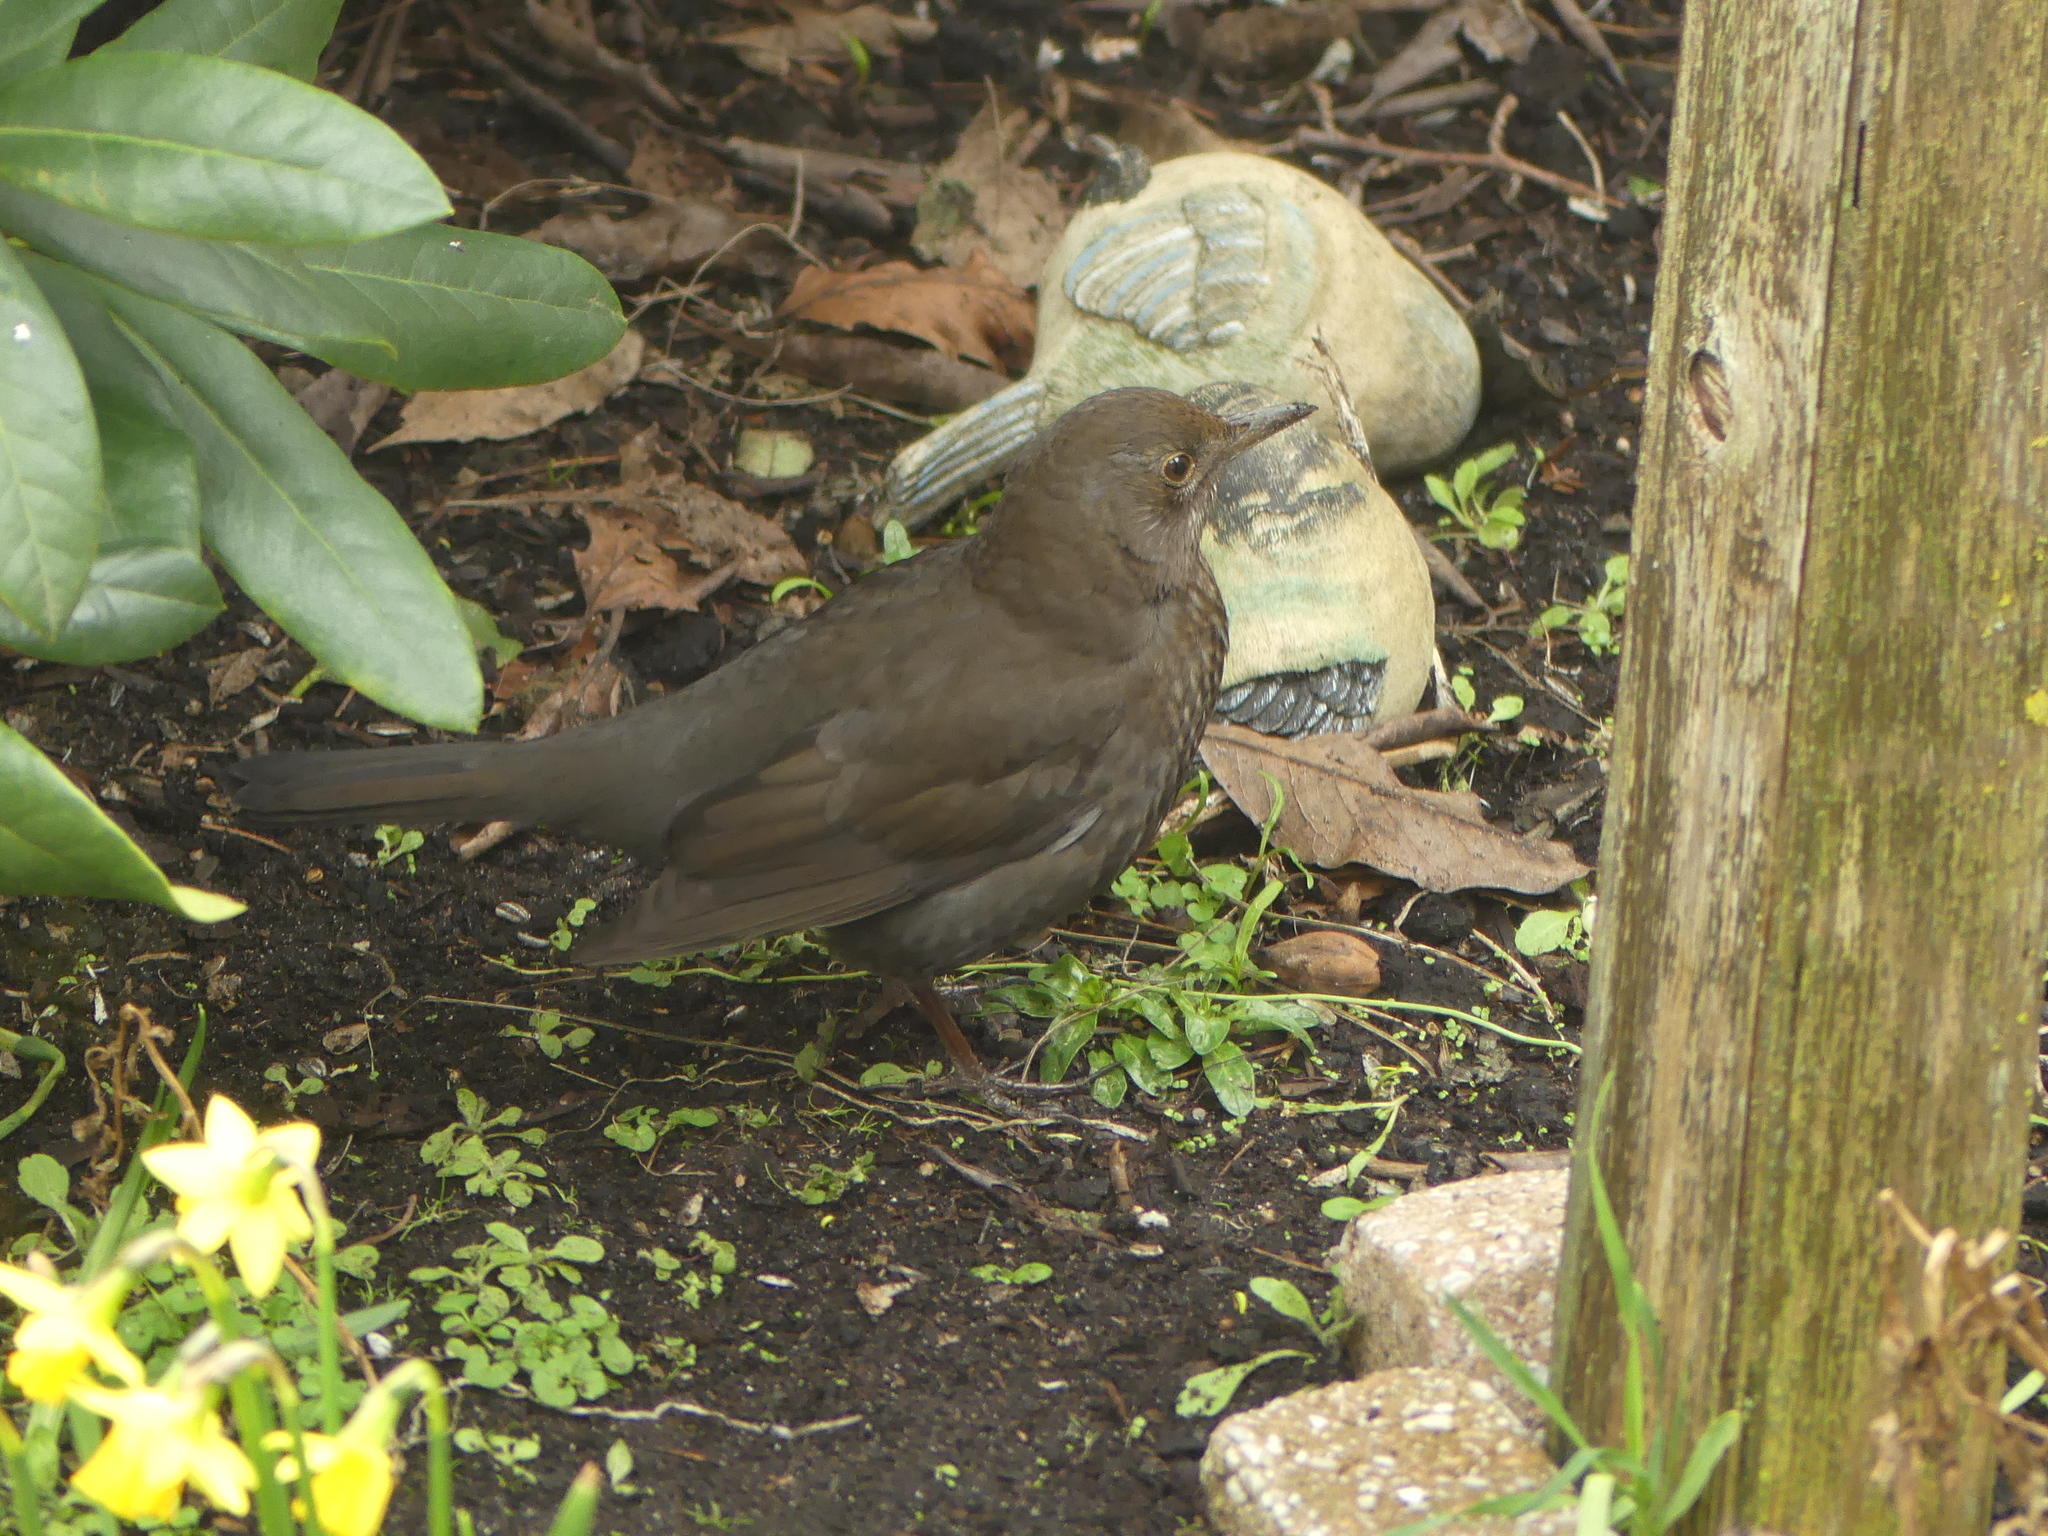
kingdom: Animalia
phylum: Chordata
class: Aves
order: Passeriformes
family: Turdidae
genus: Turdus
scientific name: Turdus merula
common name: Common blackbird
